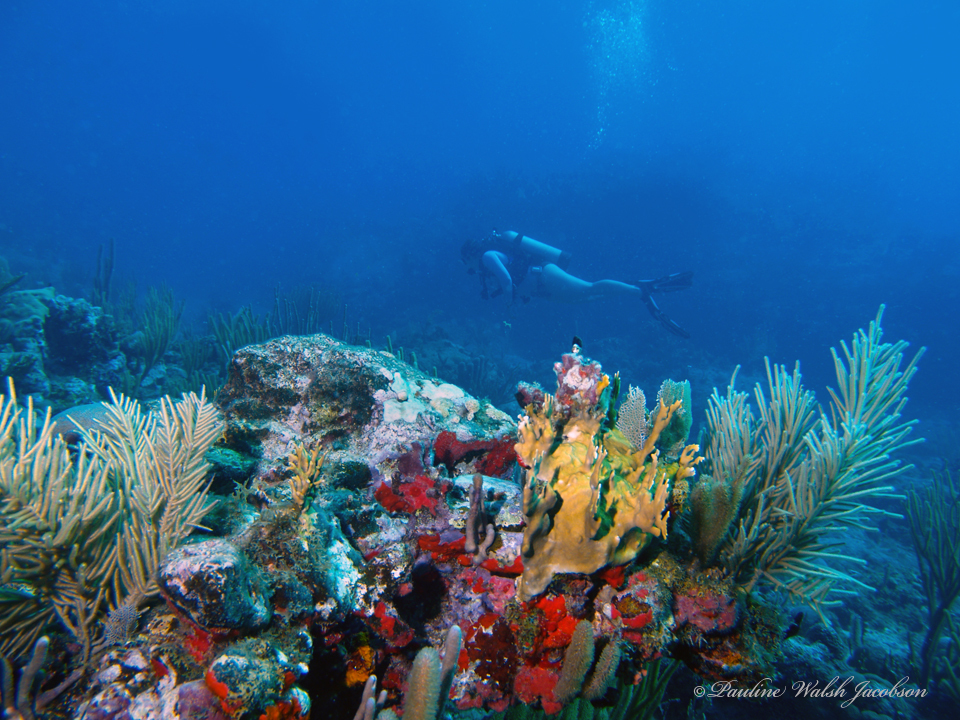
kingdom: Animalia
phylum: Cnidaria
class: Hydrozoa
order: Anthoathecata
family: Milleporidae
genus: Millepora
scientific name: Millepora alcicornis
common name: Branching fire coral
